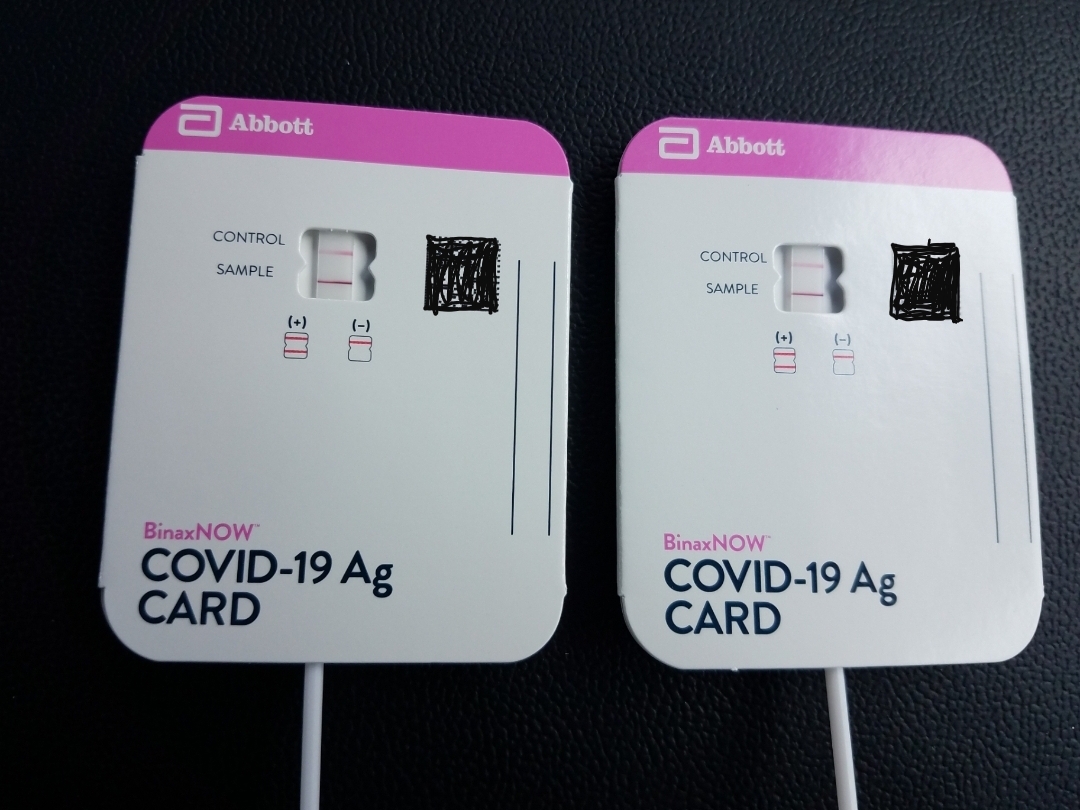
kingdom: Viruses
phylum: Pisuviricota
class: Pisoniviricetes
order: Nidovirales
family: Coronaviridae
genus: Betacoronavirus
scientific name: Betacoronavirus
